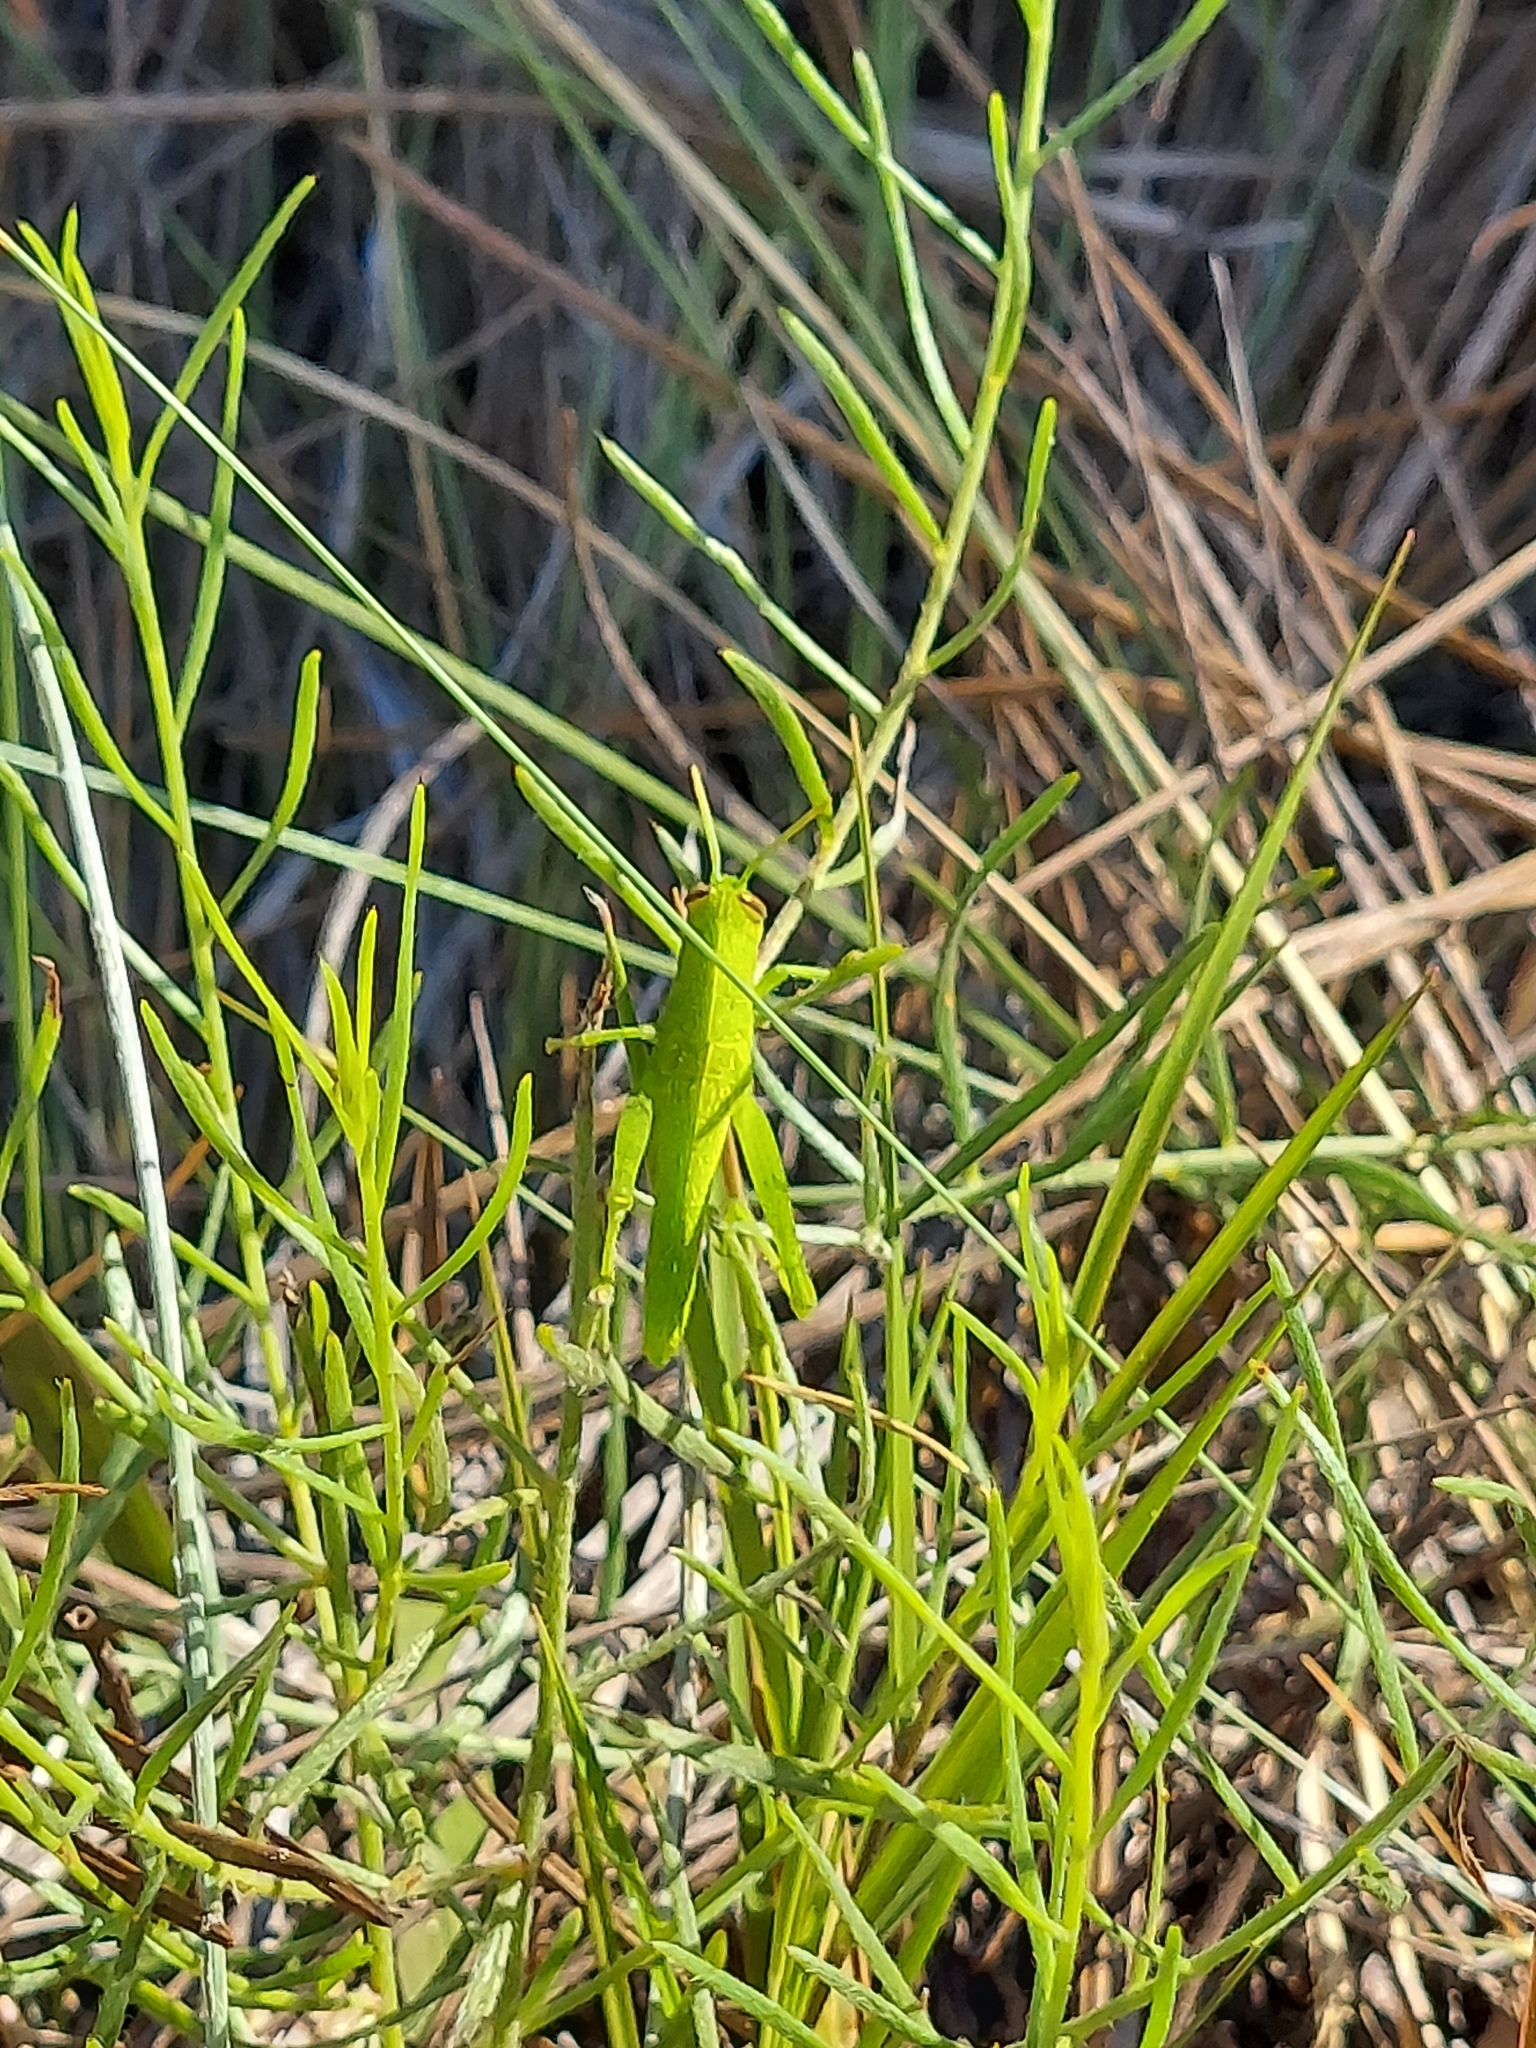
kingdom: Animalia
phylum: Arthropoda
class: Insecta
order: Orthoptera
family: Acrididae
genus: Schistocerca
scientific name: Schistocerca
